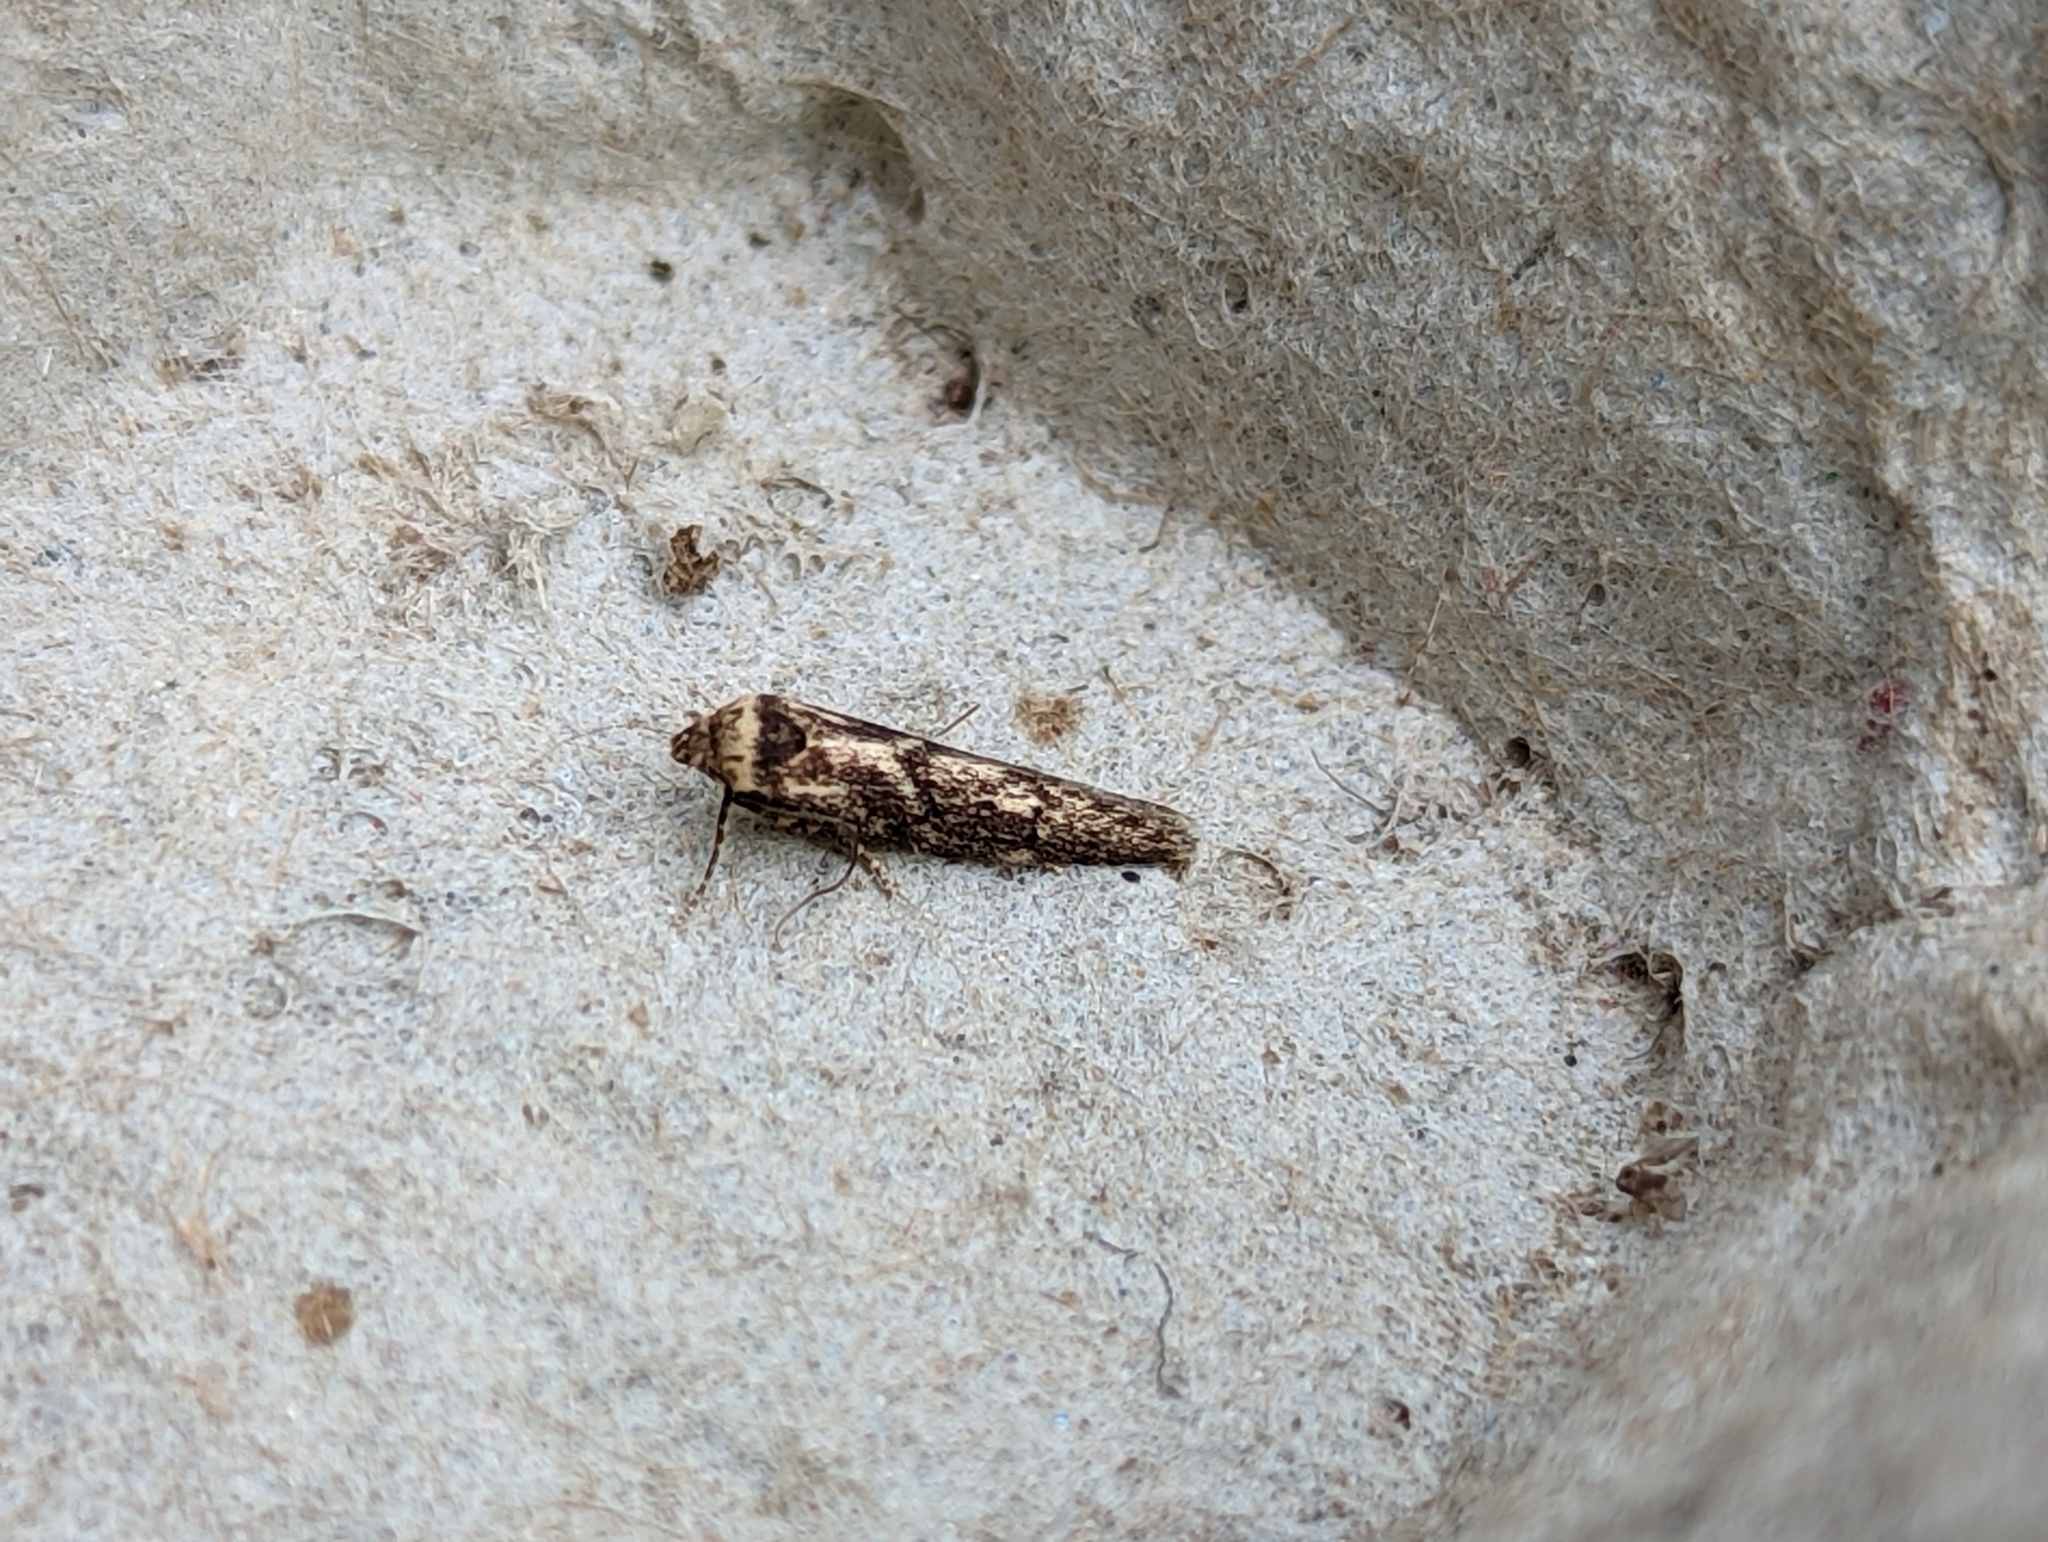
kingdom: Animalia
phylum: Arthropoda
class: Insecta
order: Lepidoptera
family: Blastobasidae
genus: Blastobasis
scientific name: Blastobasis adustella
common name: Dingy dowd
